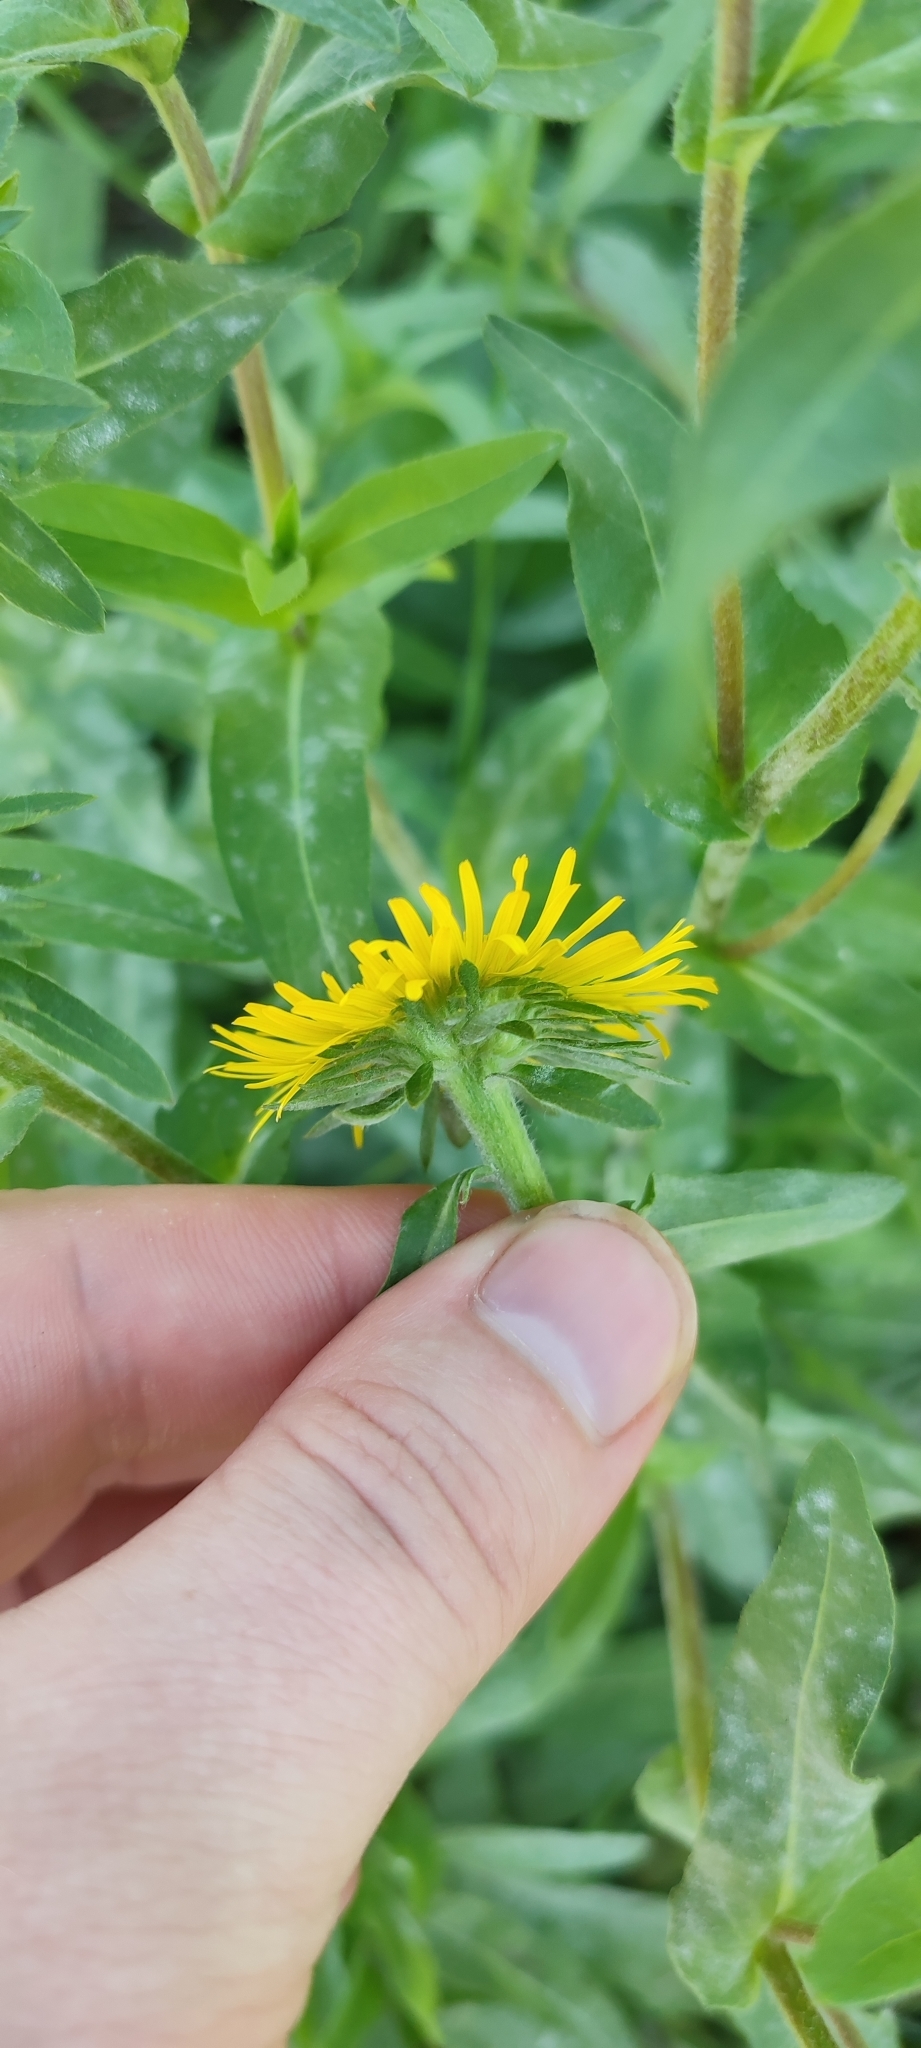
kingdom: Plantae
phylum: Tracheophyta
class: Magnoliopsida
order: Asterales
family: Asteraceae
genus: Pentanema
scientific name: Pentanema britannicum
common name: British elecampane
